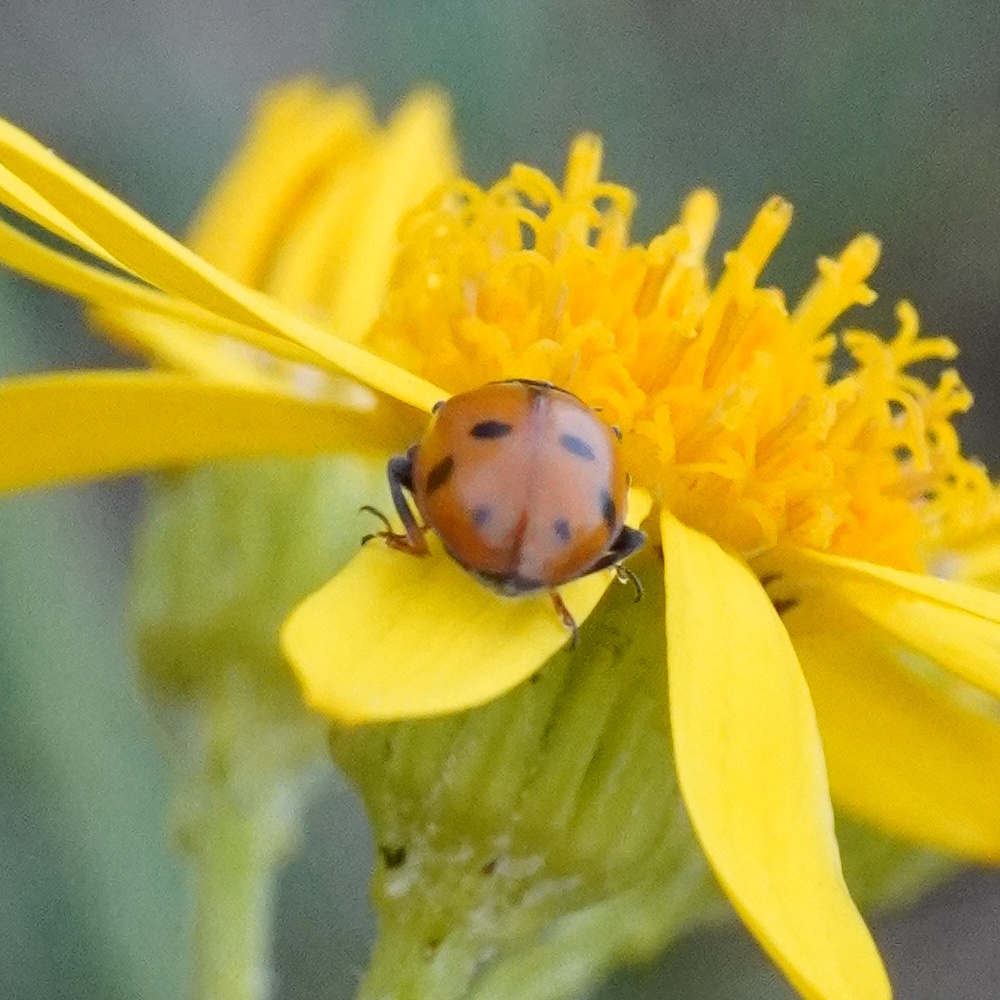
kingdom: Animalia
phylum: Arthropoda
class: Insecta
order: Coleoptera
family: Coccinellidae
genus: Hippodamia
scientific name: Hippodamia variegata
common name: Ladybird beetle
